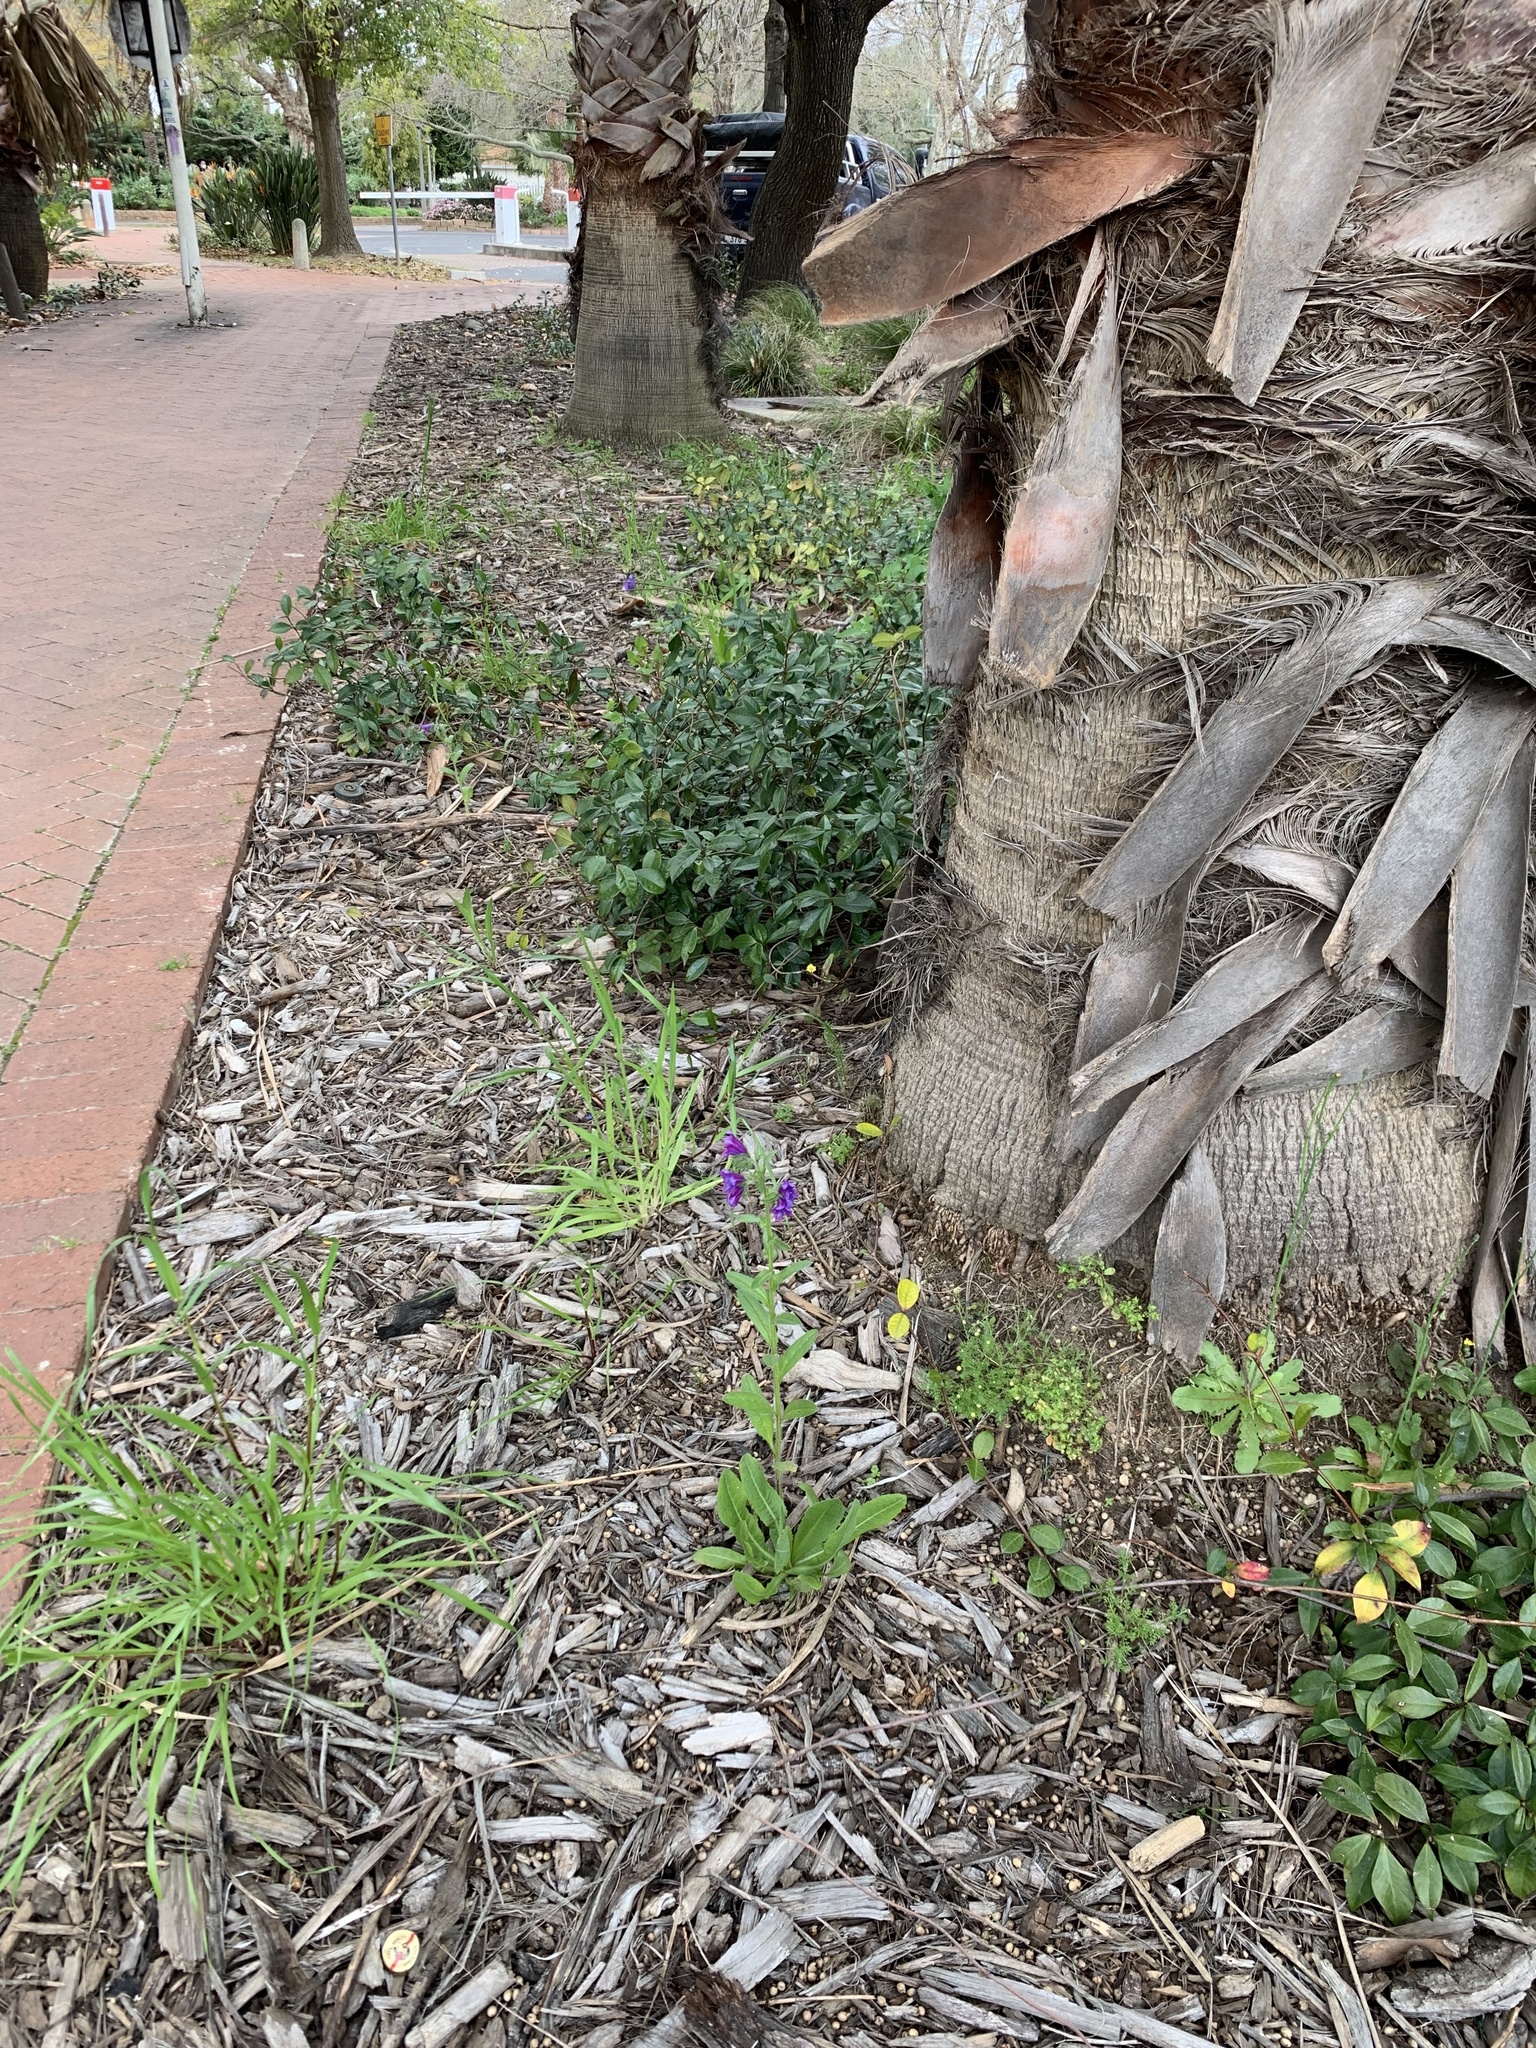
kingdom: Plantae
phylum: Tracheophyta
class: Magnoliopsida
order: Boraginales
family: Boraginaceae
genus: Echium
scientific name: Echium plantagineum
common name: Purple viper's-bugloss
